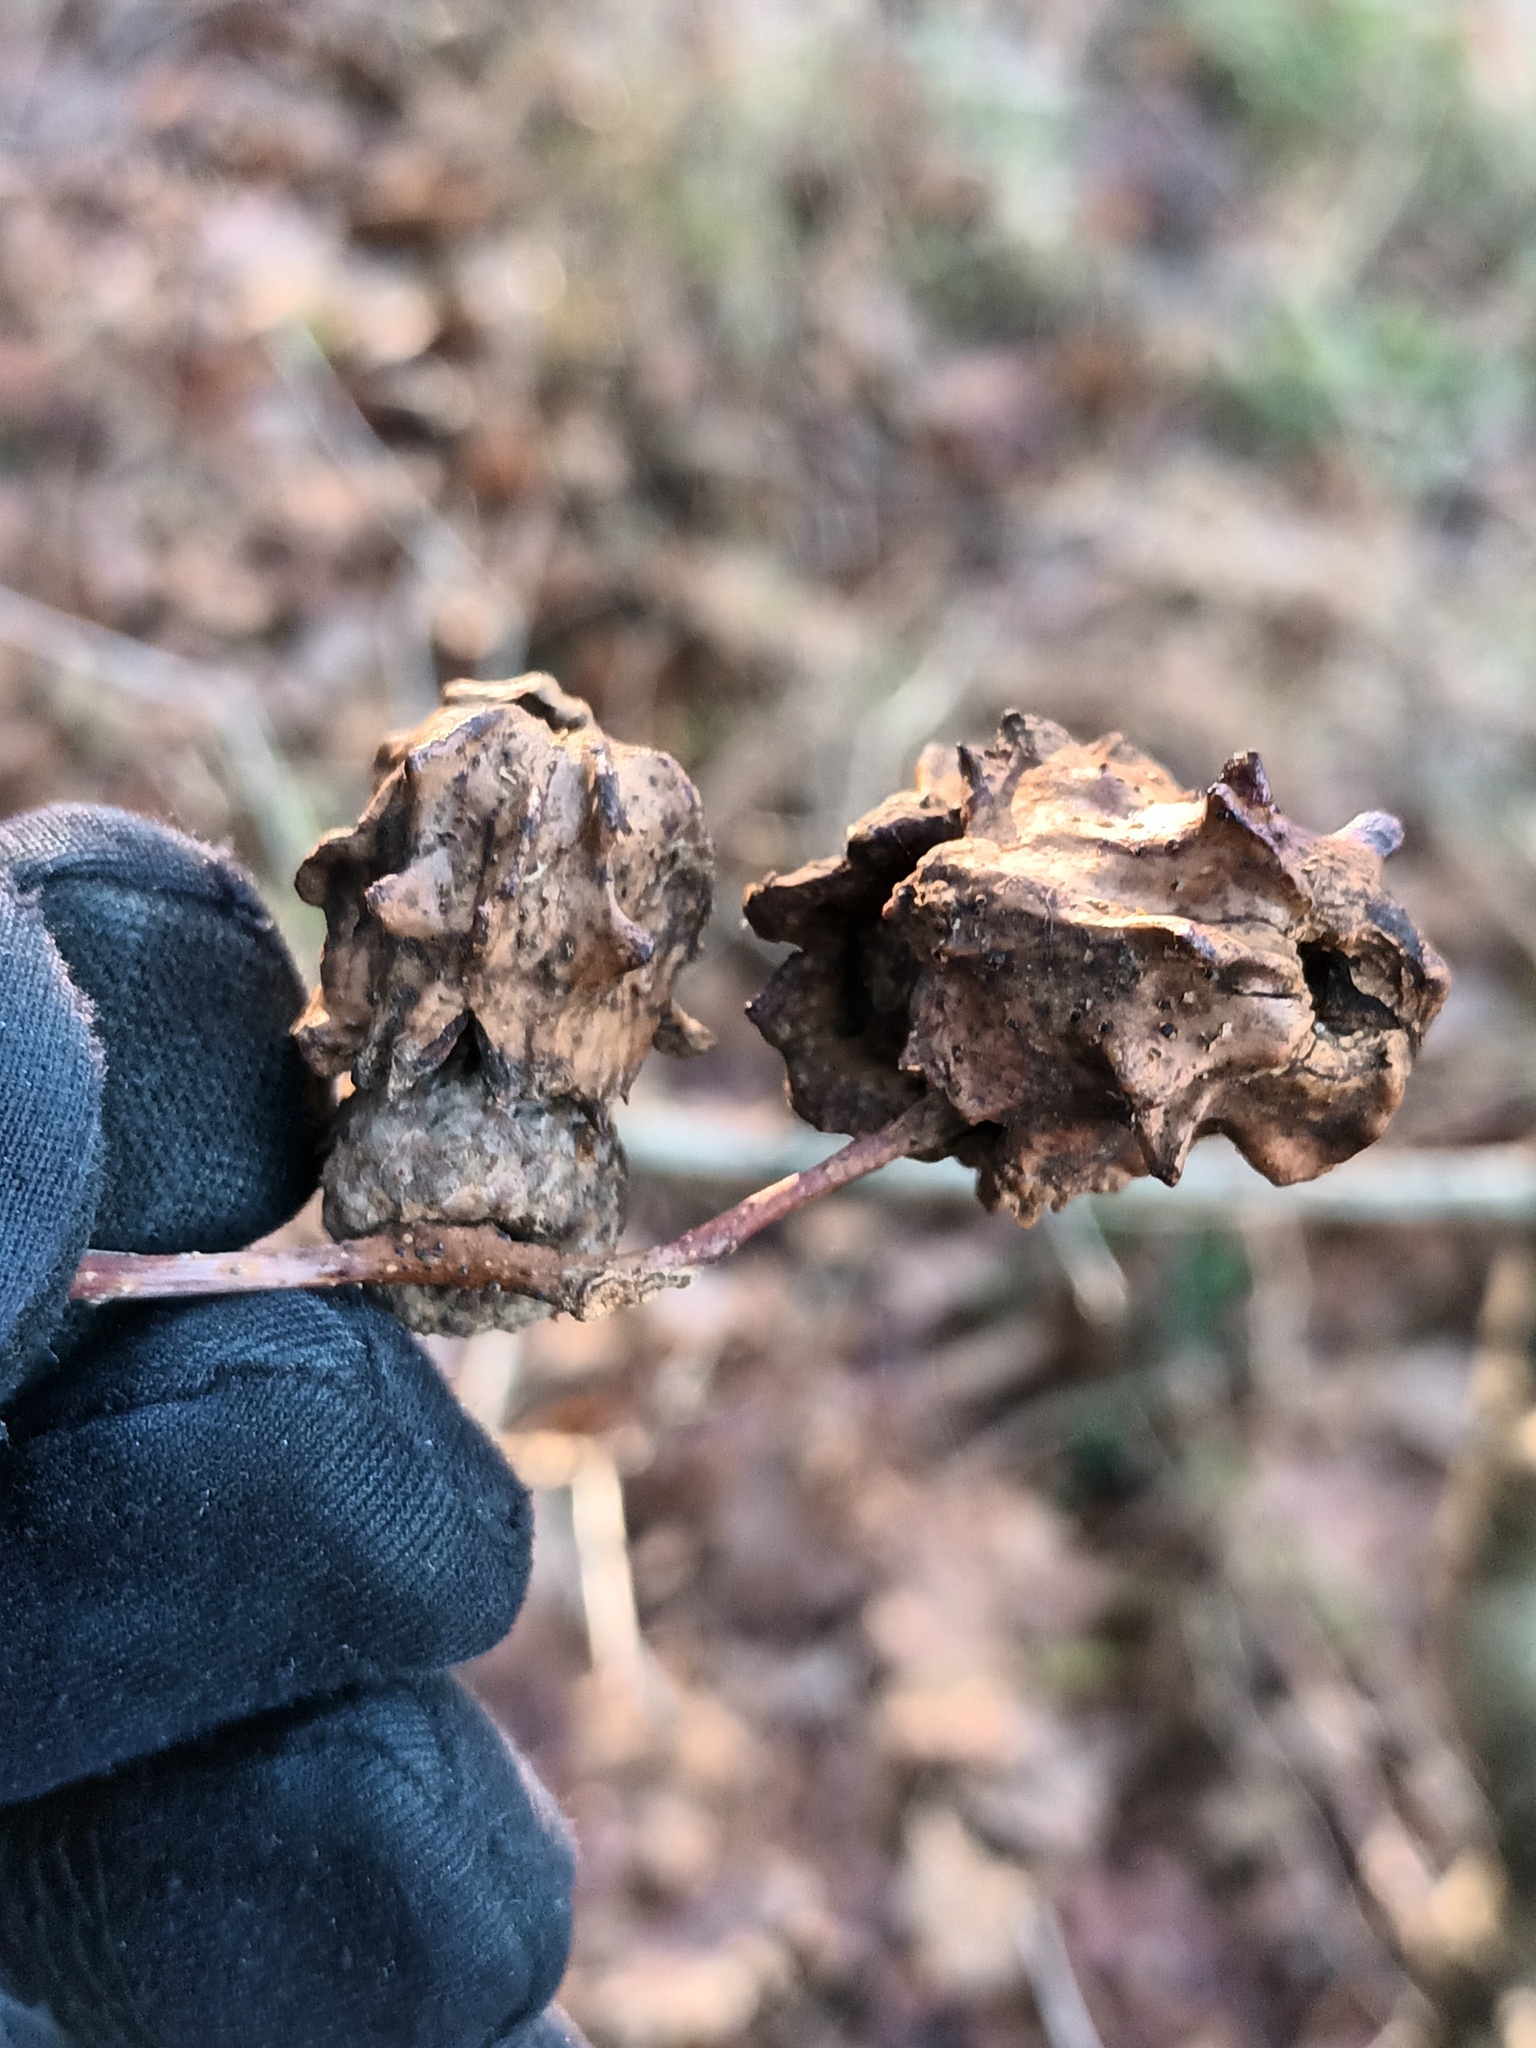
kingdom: Animalia
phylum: Arthropoda
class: Insecta
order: Hymenoptera
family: Cynipidae
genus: Andricus
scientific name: Andricus quercuscalicis
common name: Knopper gall
